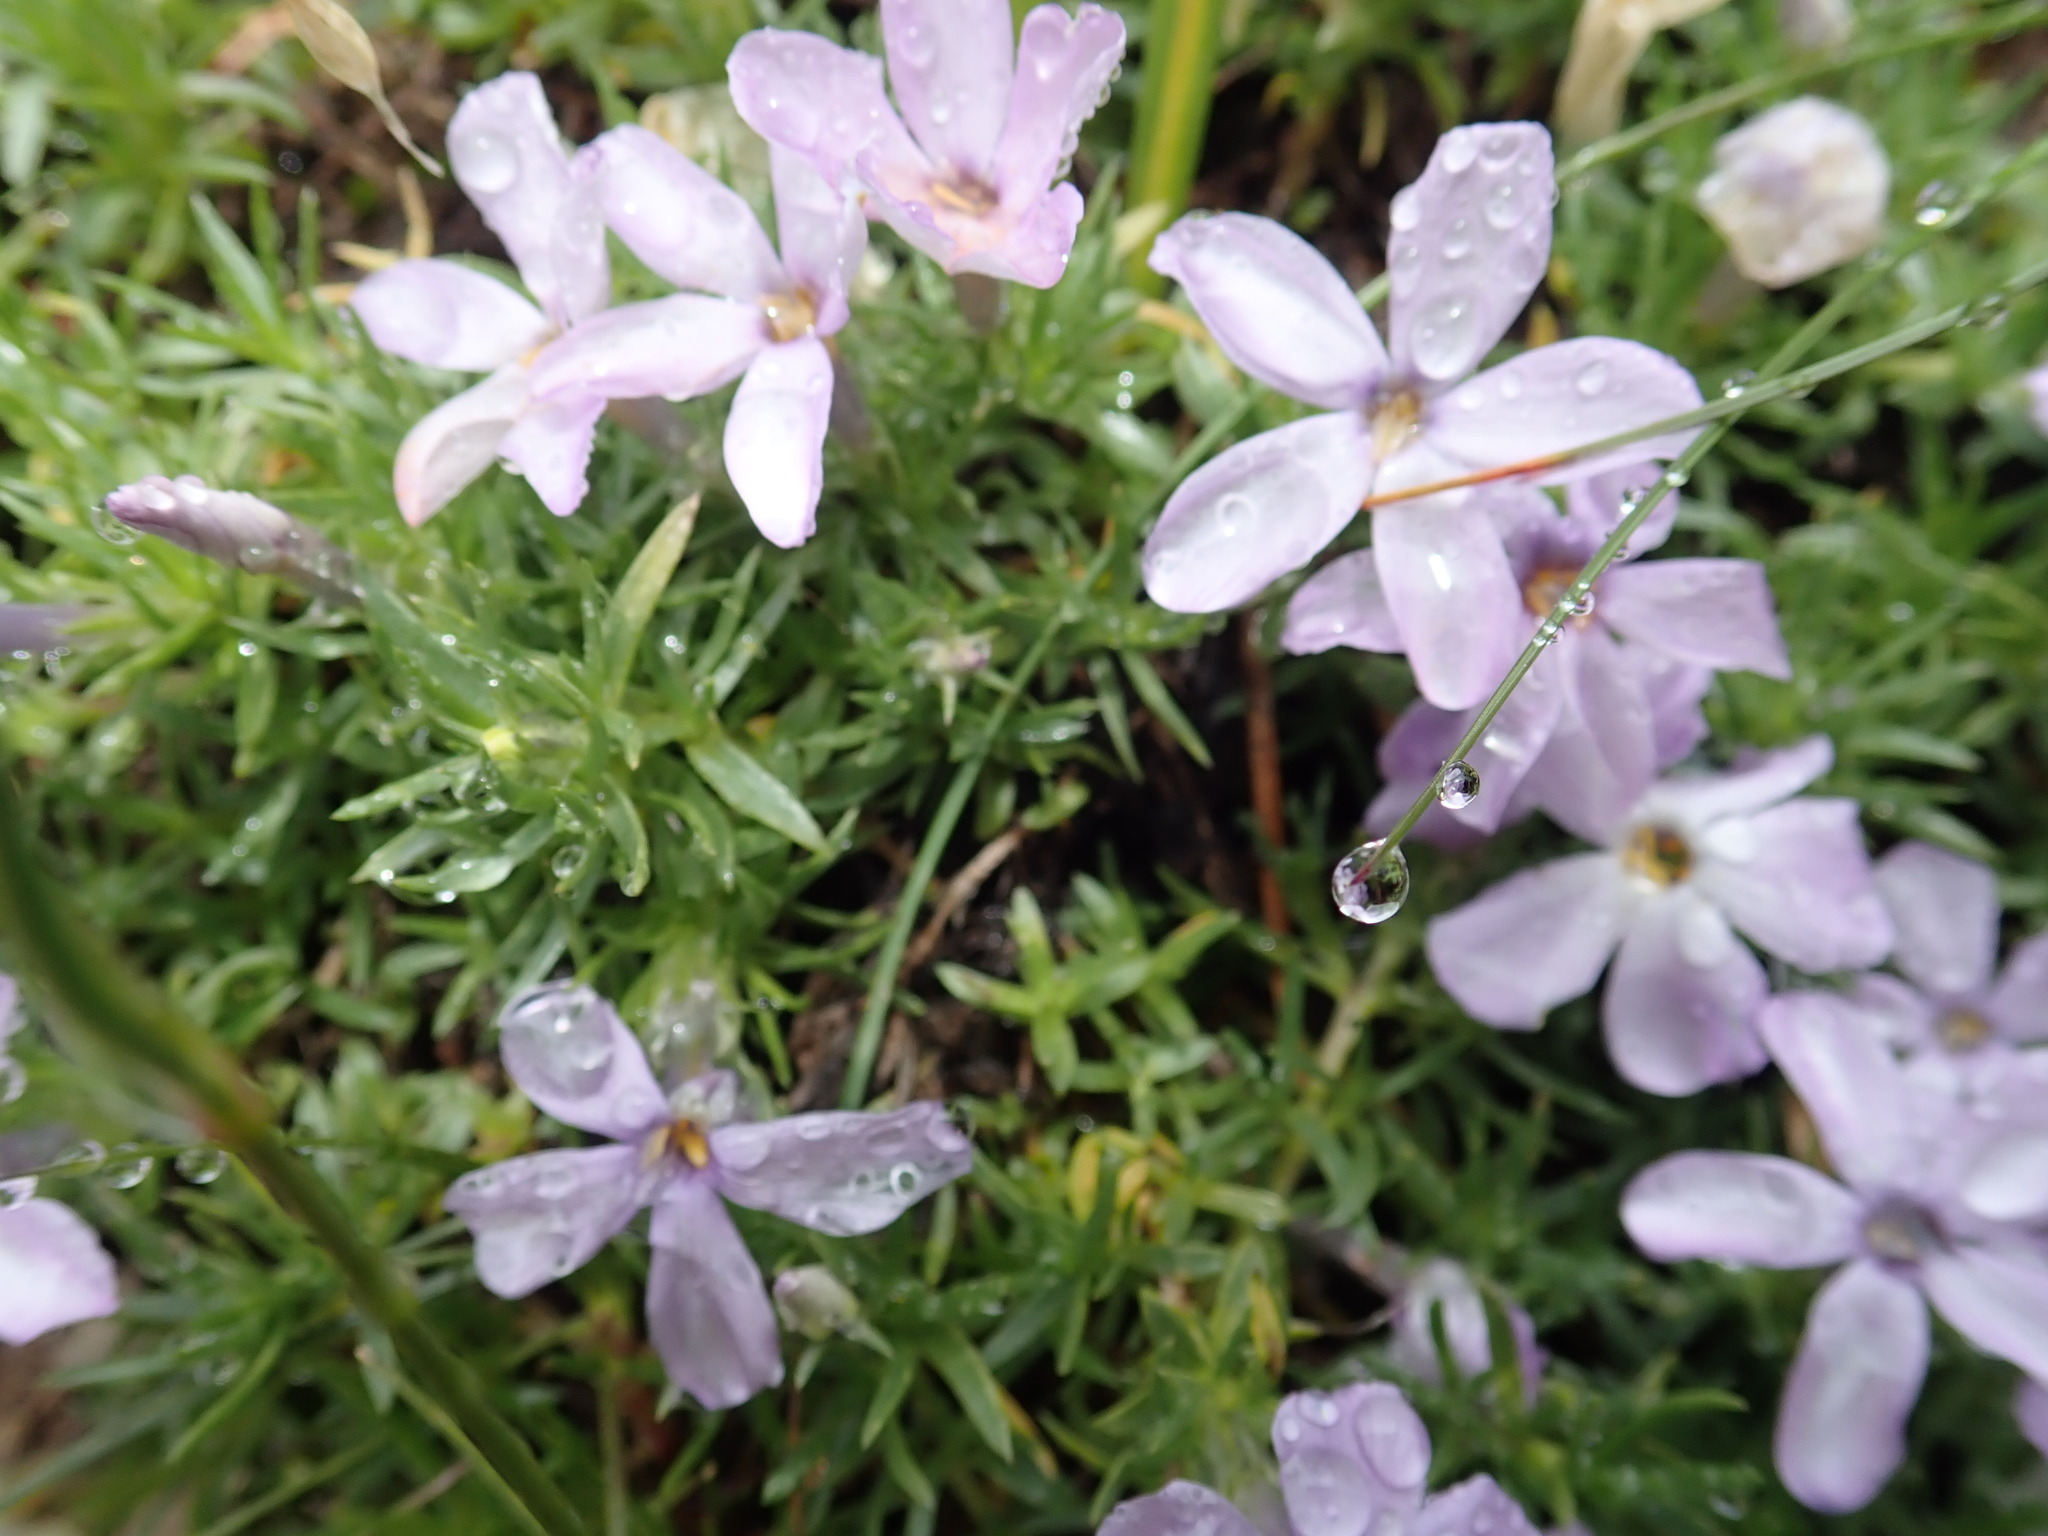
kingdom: Plantae
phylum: Tracheophyta
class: Magnoliopsida
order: Ericales
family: Polemoniaceae
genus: Phlox
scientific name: Phlox diffusa
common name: Mat phlox
